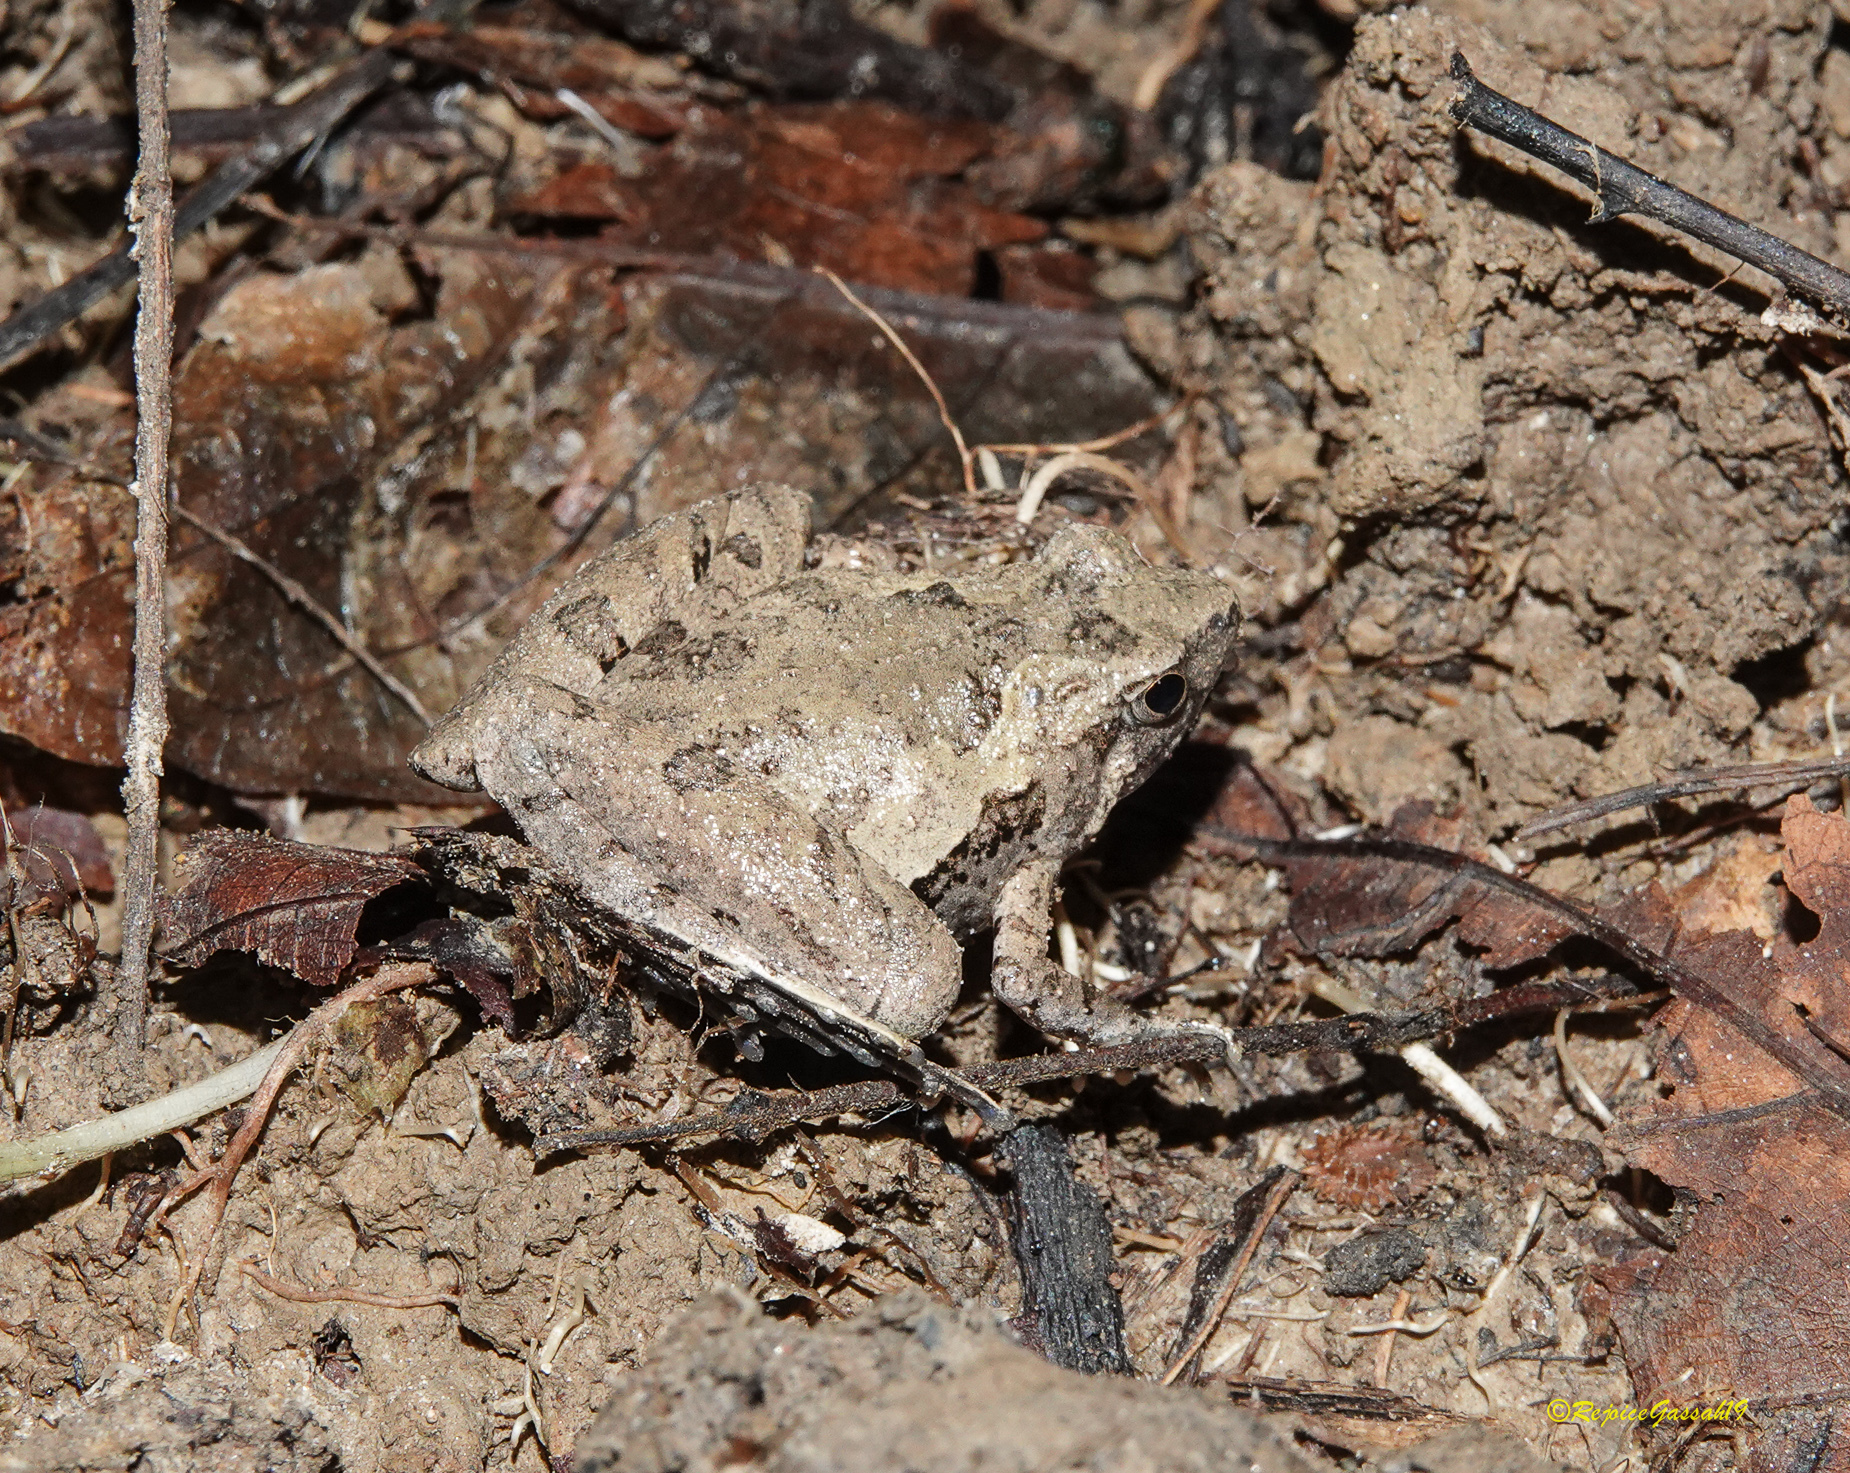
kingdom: Animalia
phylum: Chordata
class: Amphibia
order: Anura
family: Microhylidae
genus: Microhyla
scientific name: Microhyla berdmorei
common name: Berdmore’s narrow-mouthed frog,large pygmy frog
